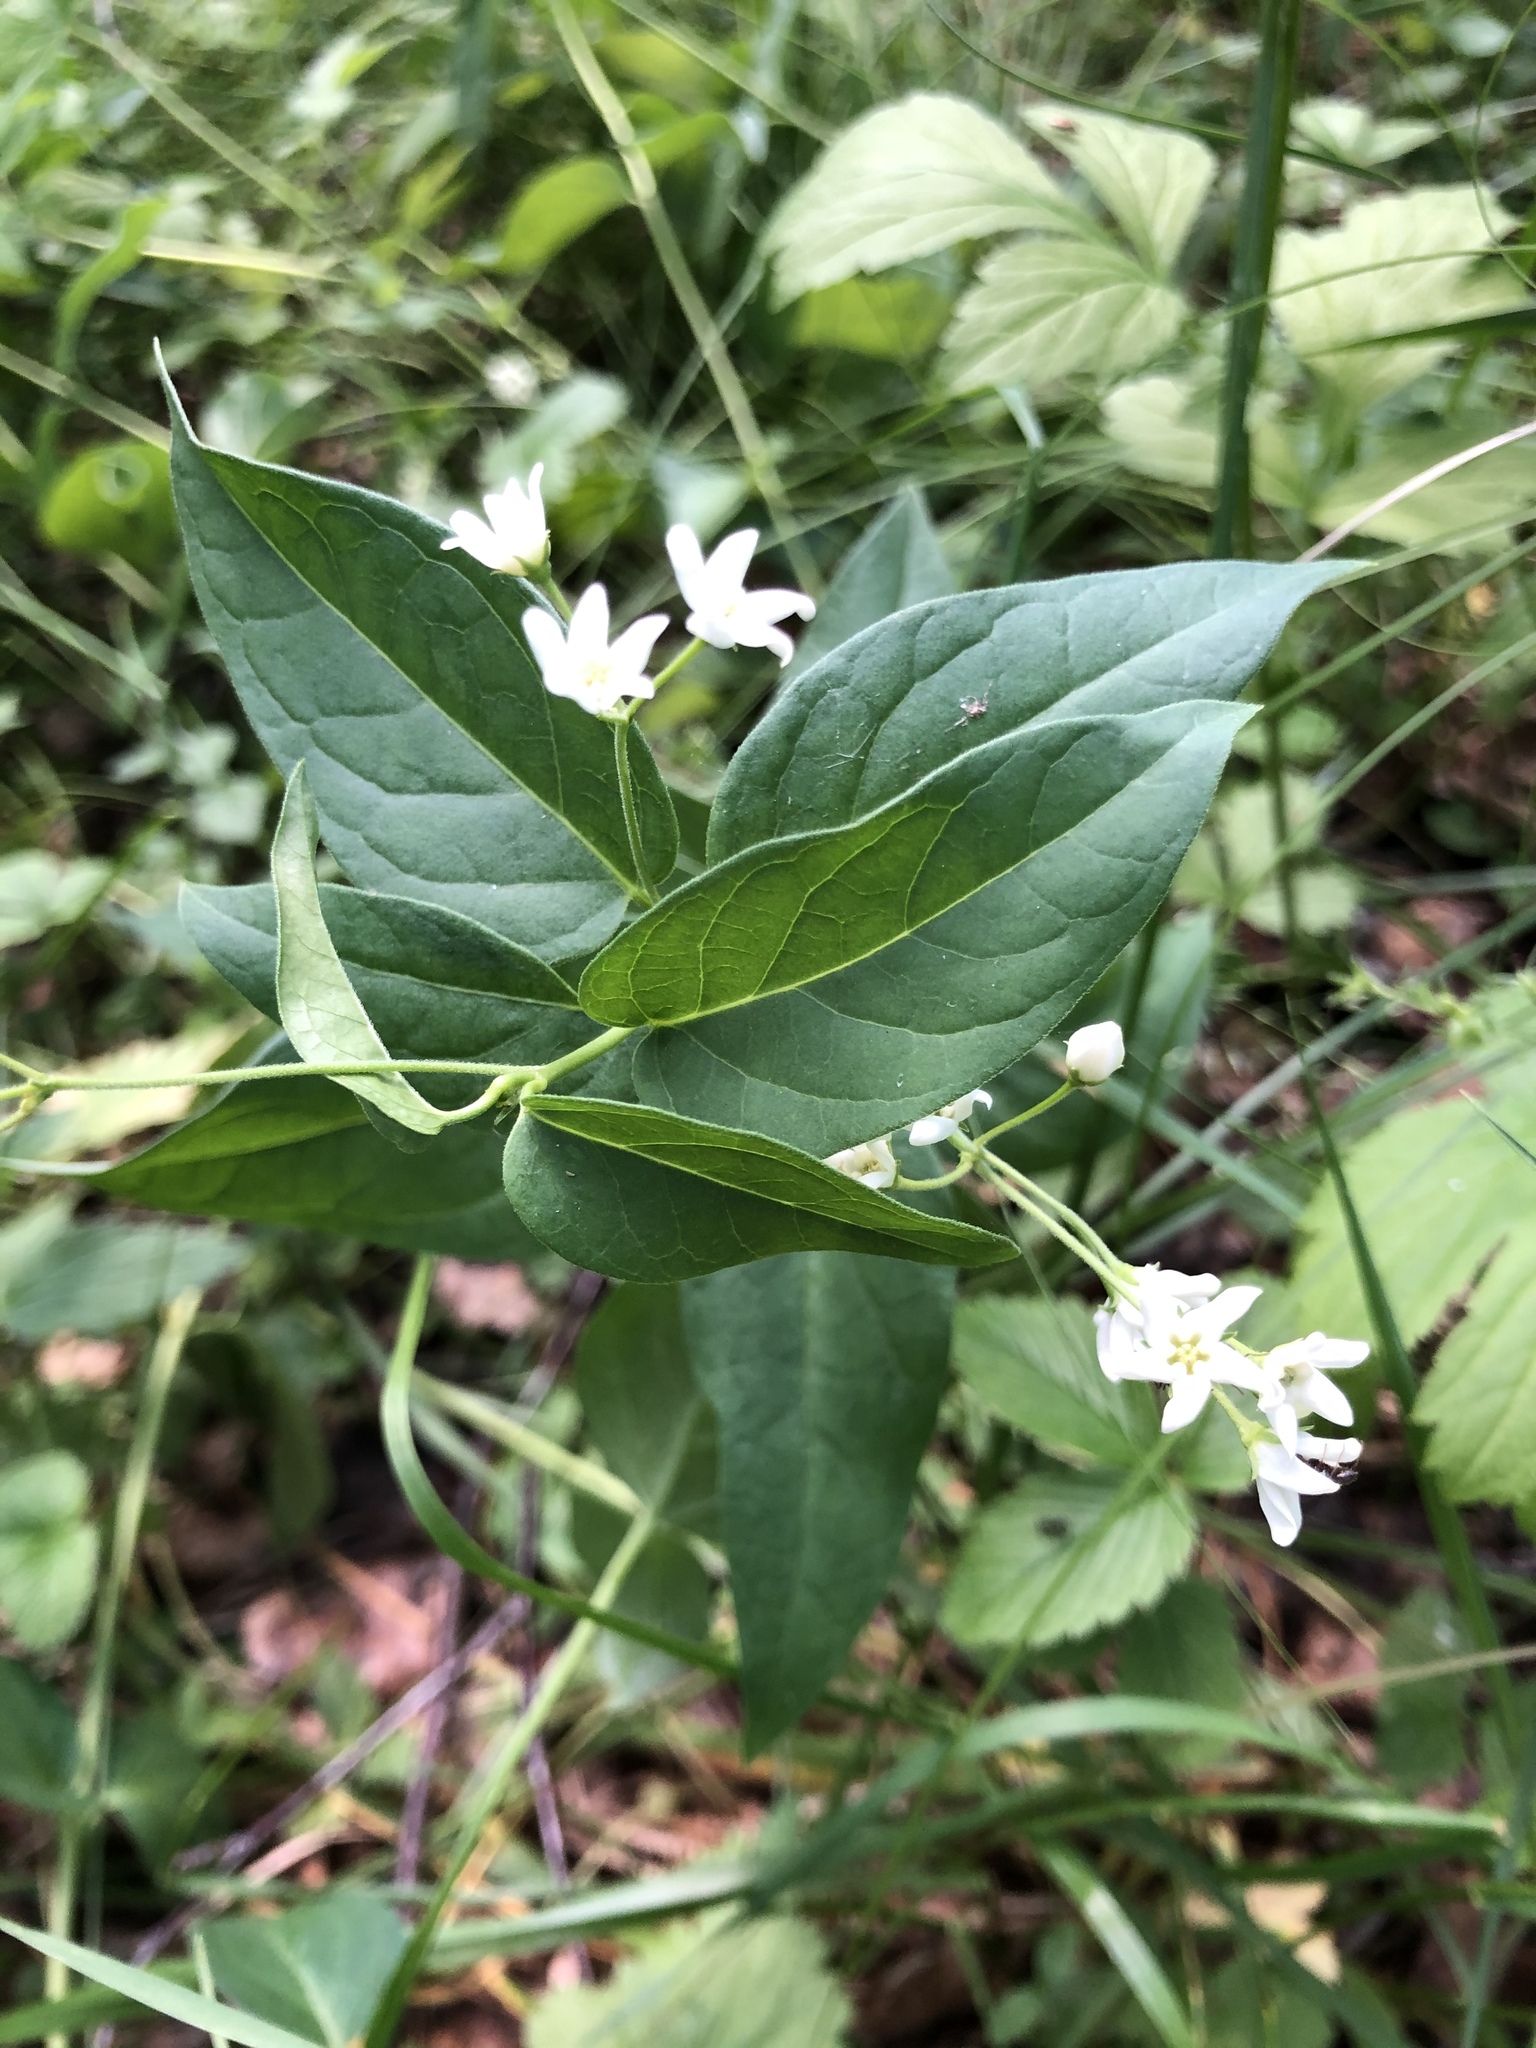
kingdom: Plantae
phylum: Tracheophyta
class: Magnoliopsida
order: Gentianales
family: Apocynaceae
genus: Vincetoxicum
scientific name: Vincetoxicum hirundinaria
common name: White swallowwort
